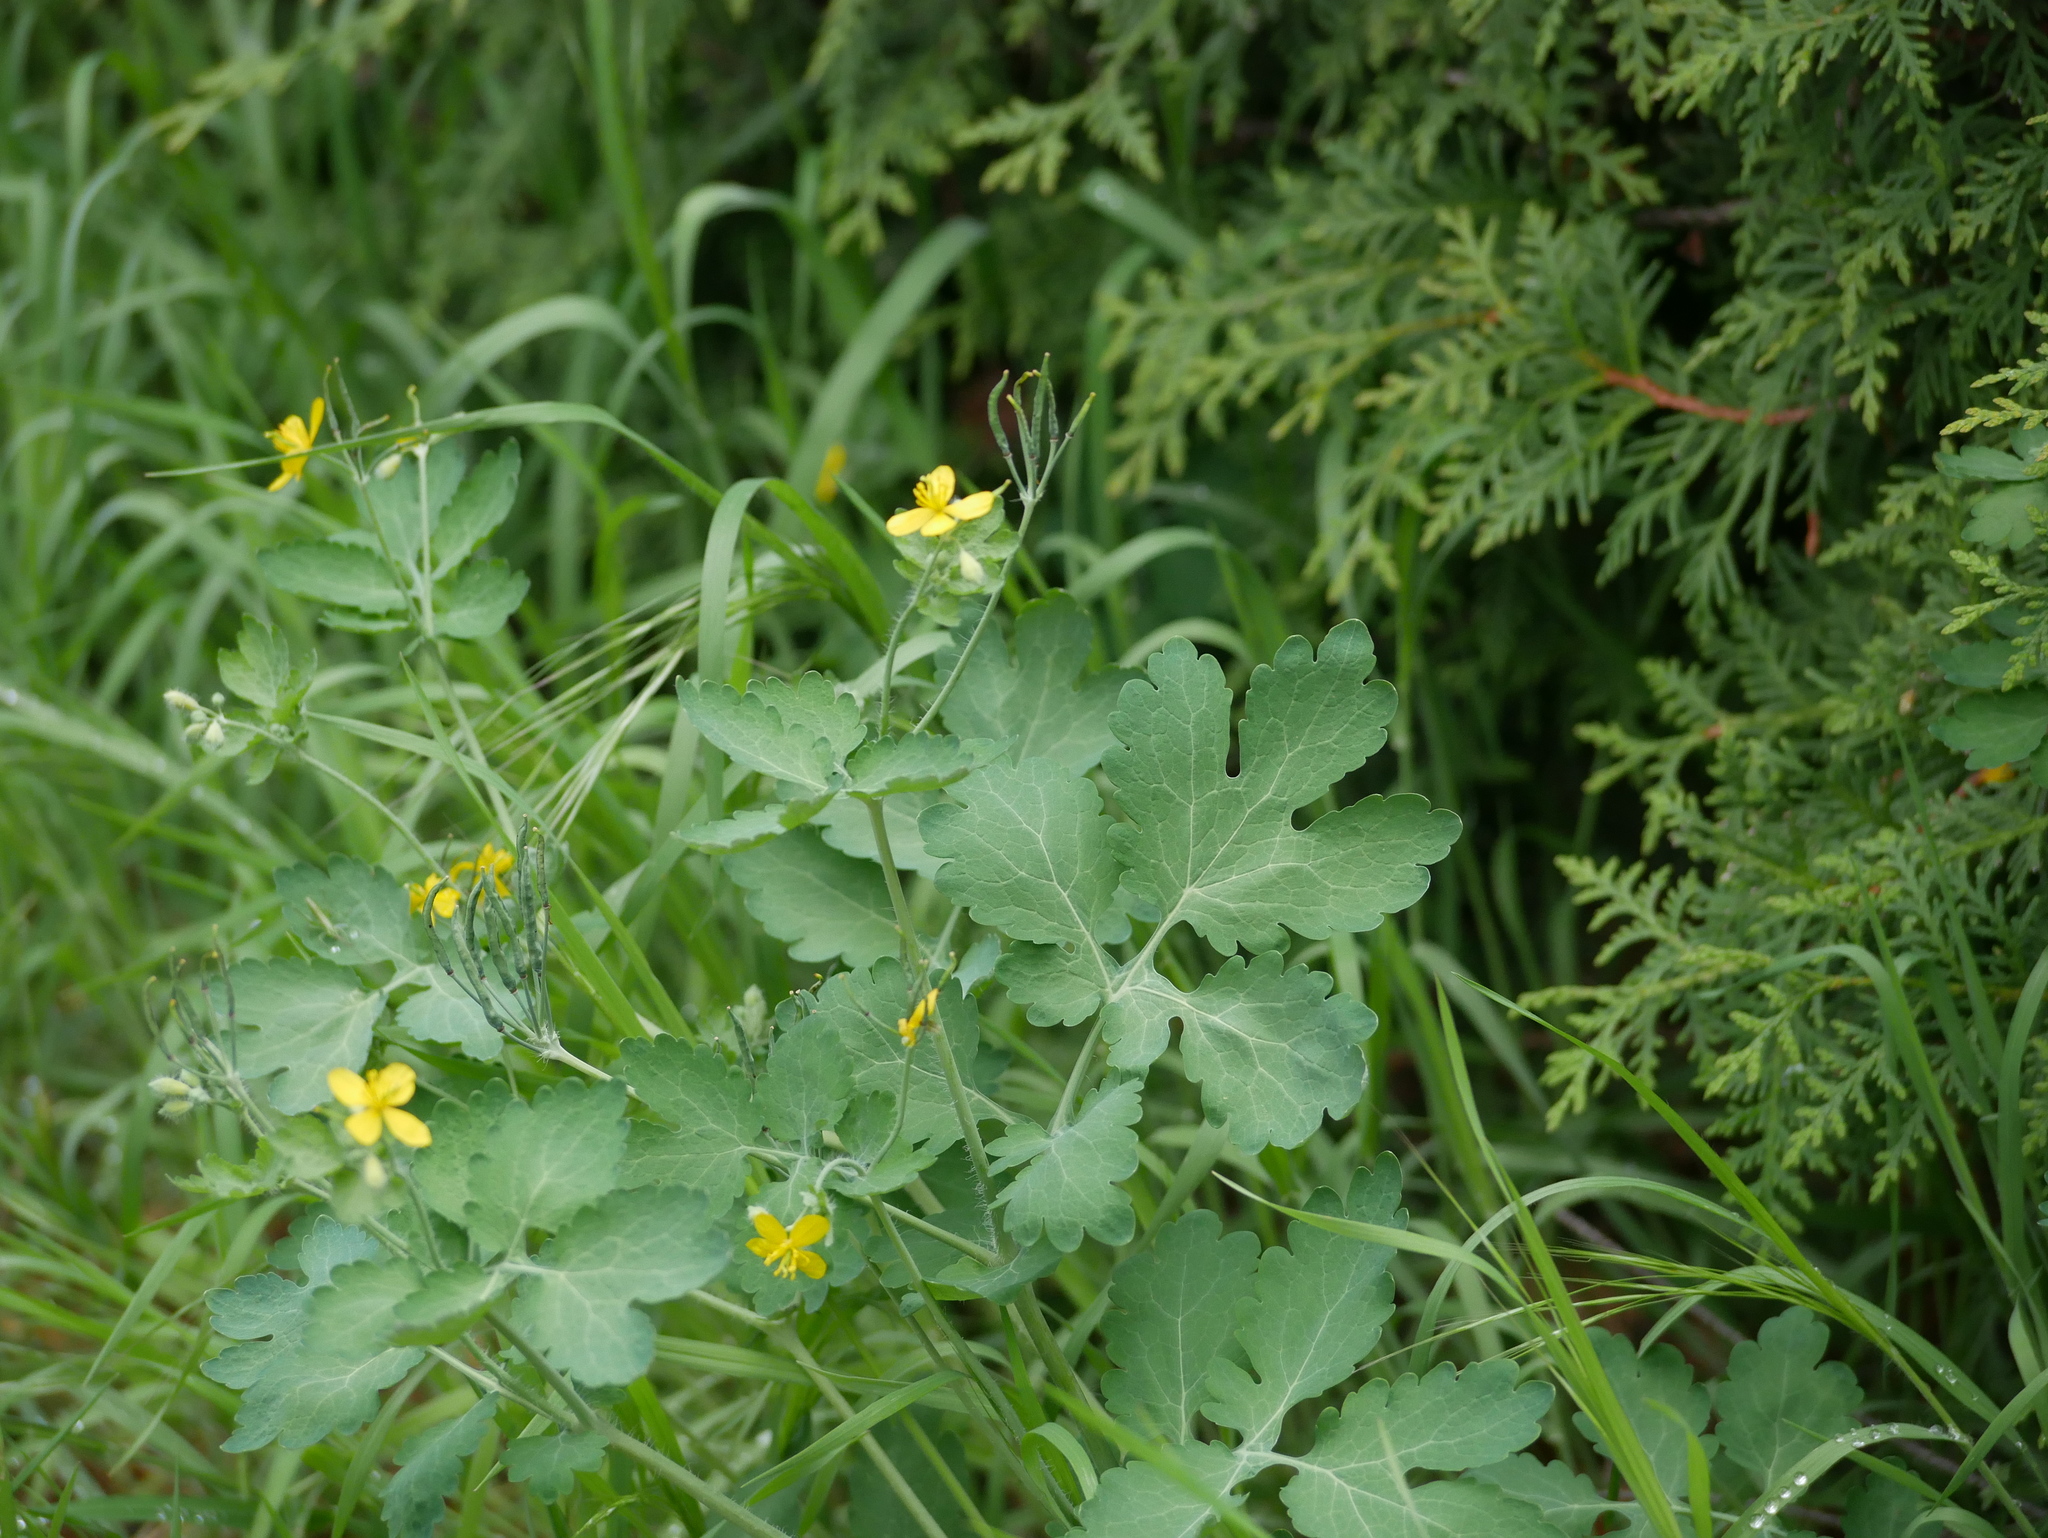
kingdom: Plantae
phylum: Tracheophyta
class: Magnoliopsida
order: Ranunculales
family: Papaveraceae
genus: Chelidonium
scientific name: Chelidonium majus
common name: Greater celandine
